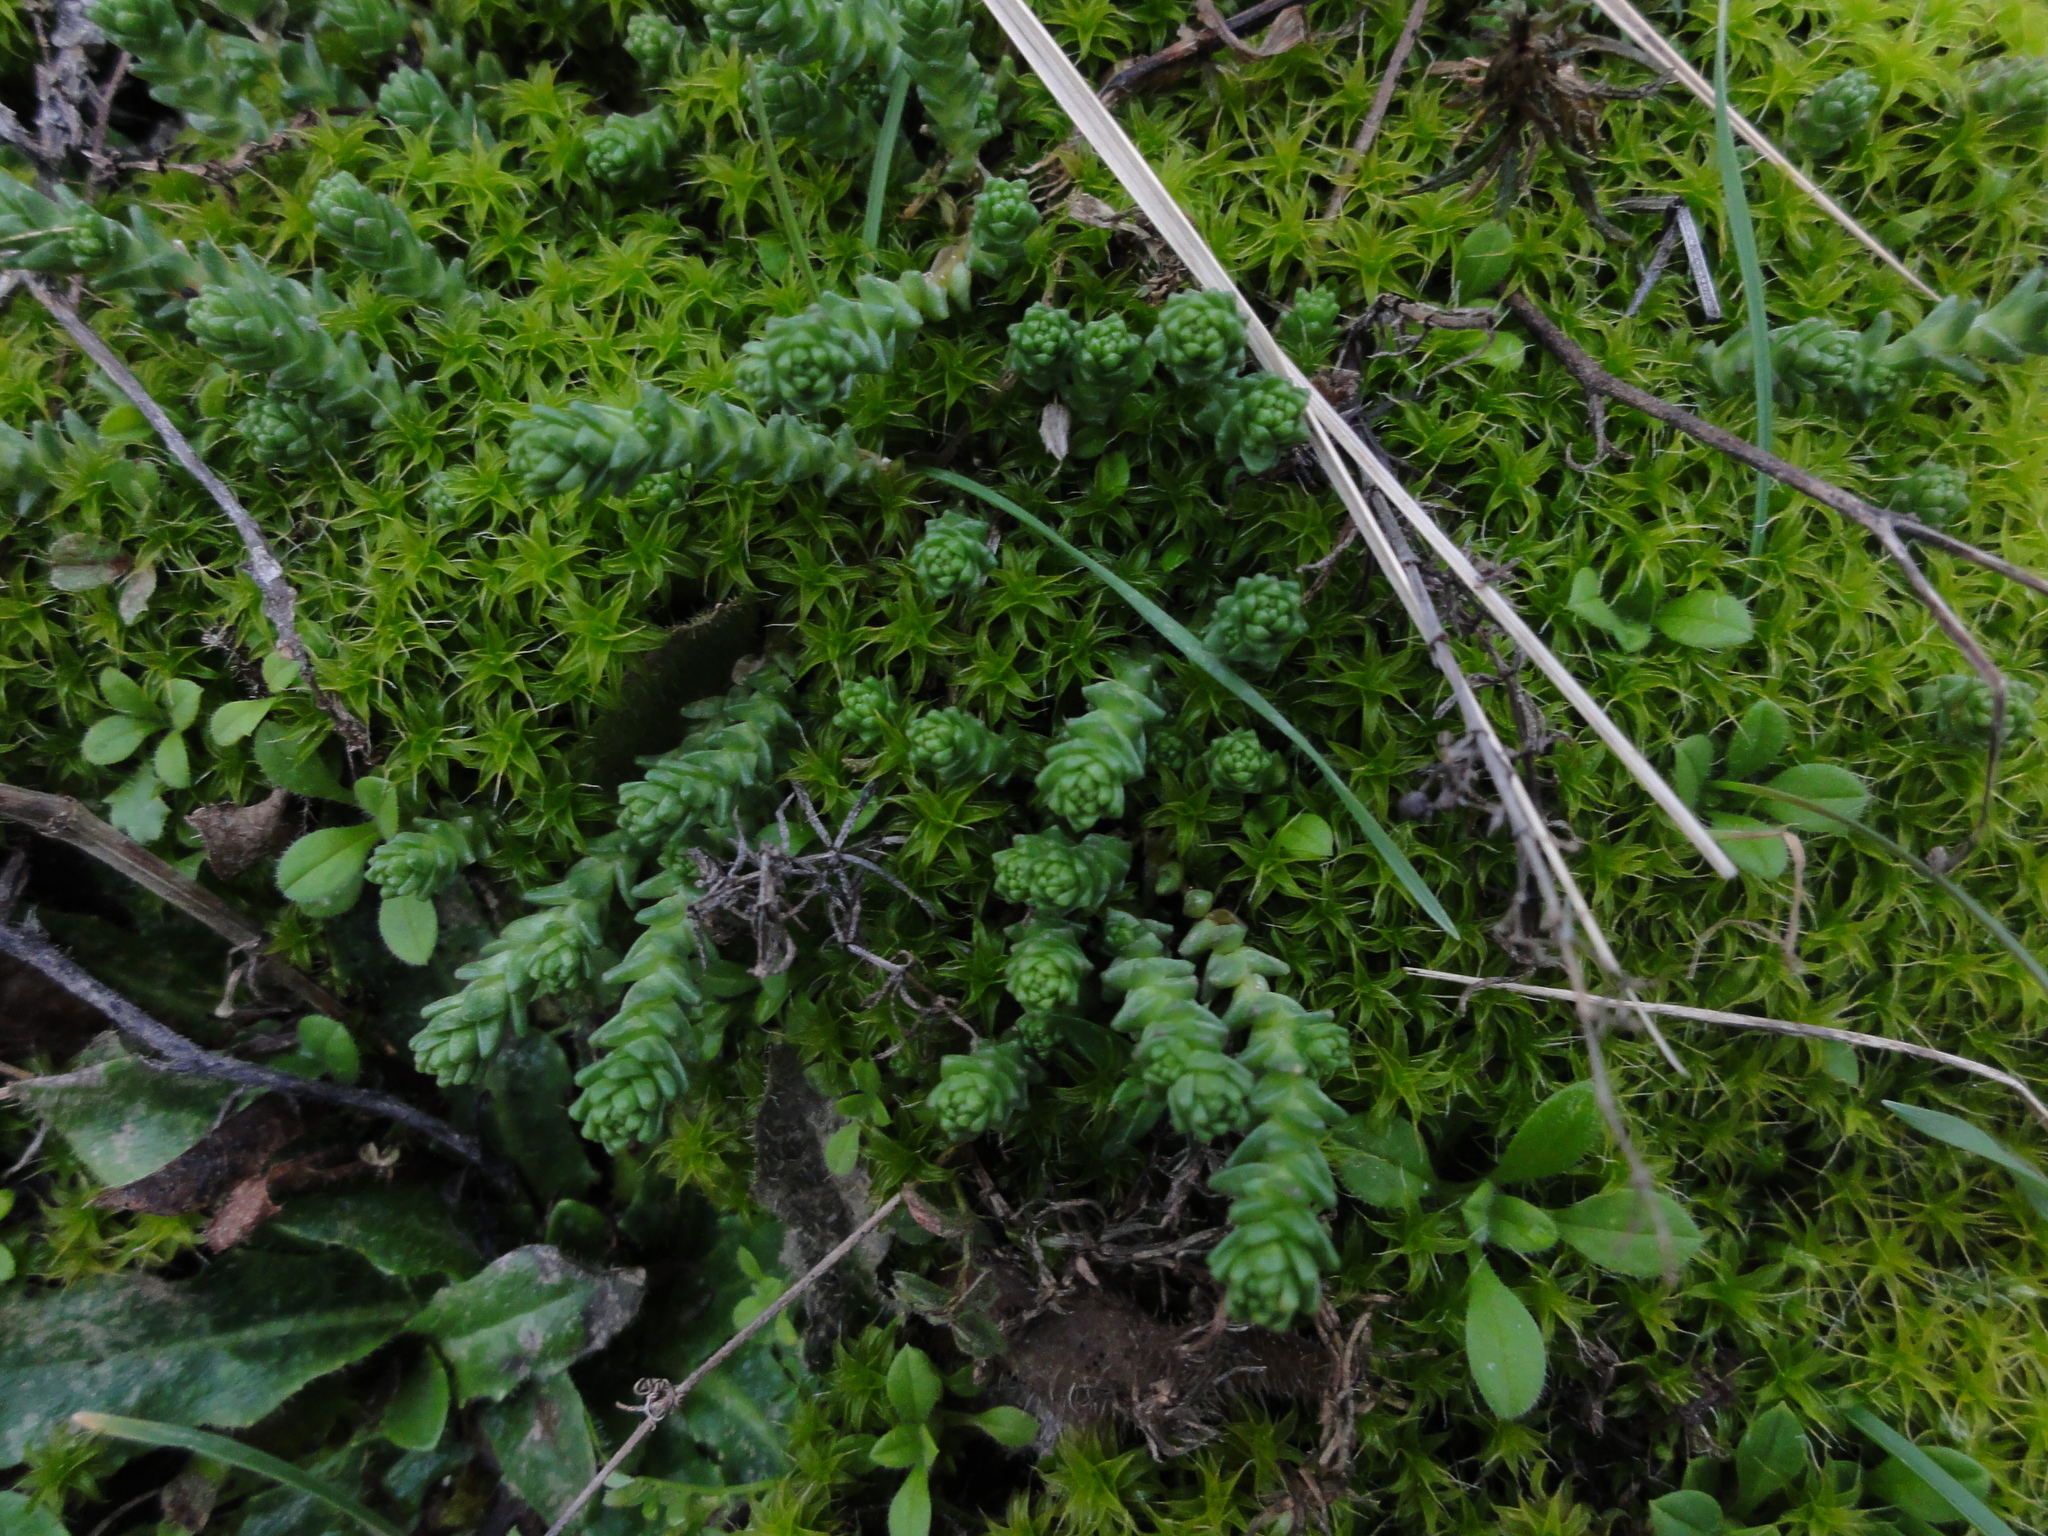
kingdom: Plantae
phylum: Tracheophyta
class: Magnoliopsida
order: Saxifragales
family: Crassulaceae
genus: Sedum
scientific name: Sedum acre
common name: Biting stonecrop
